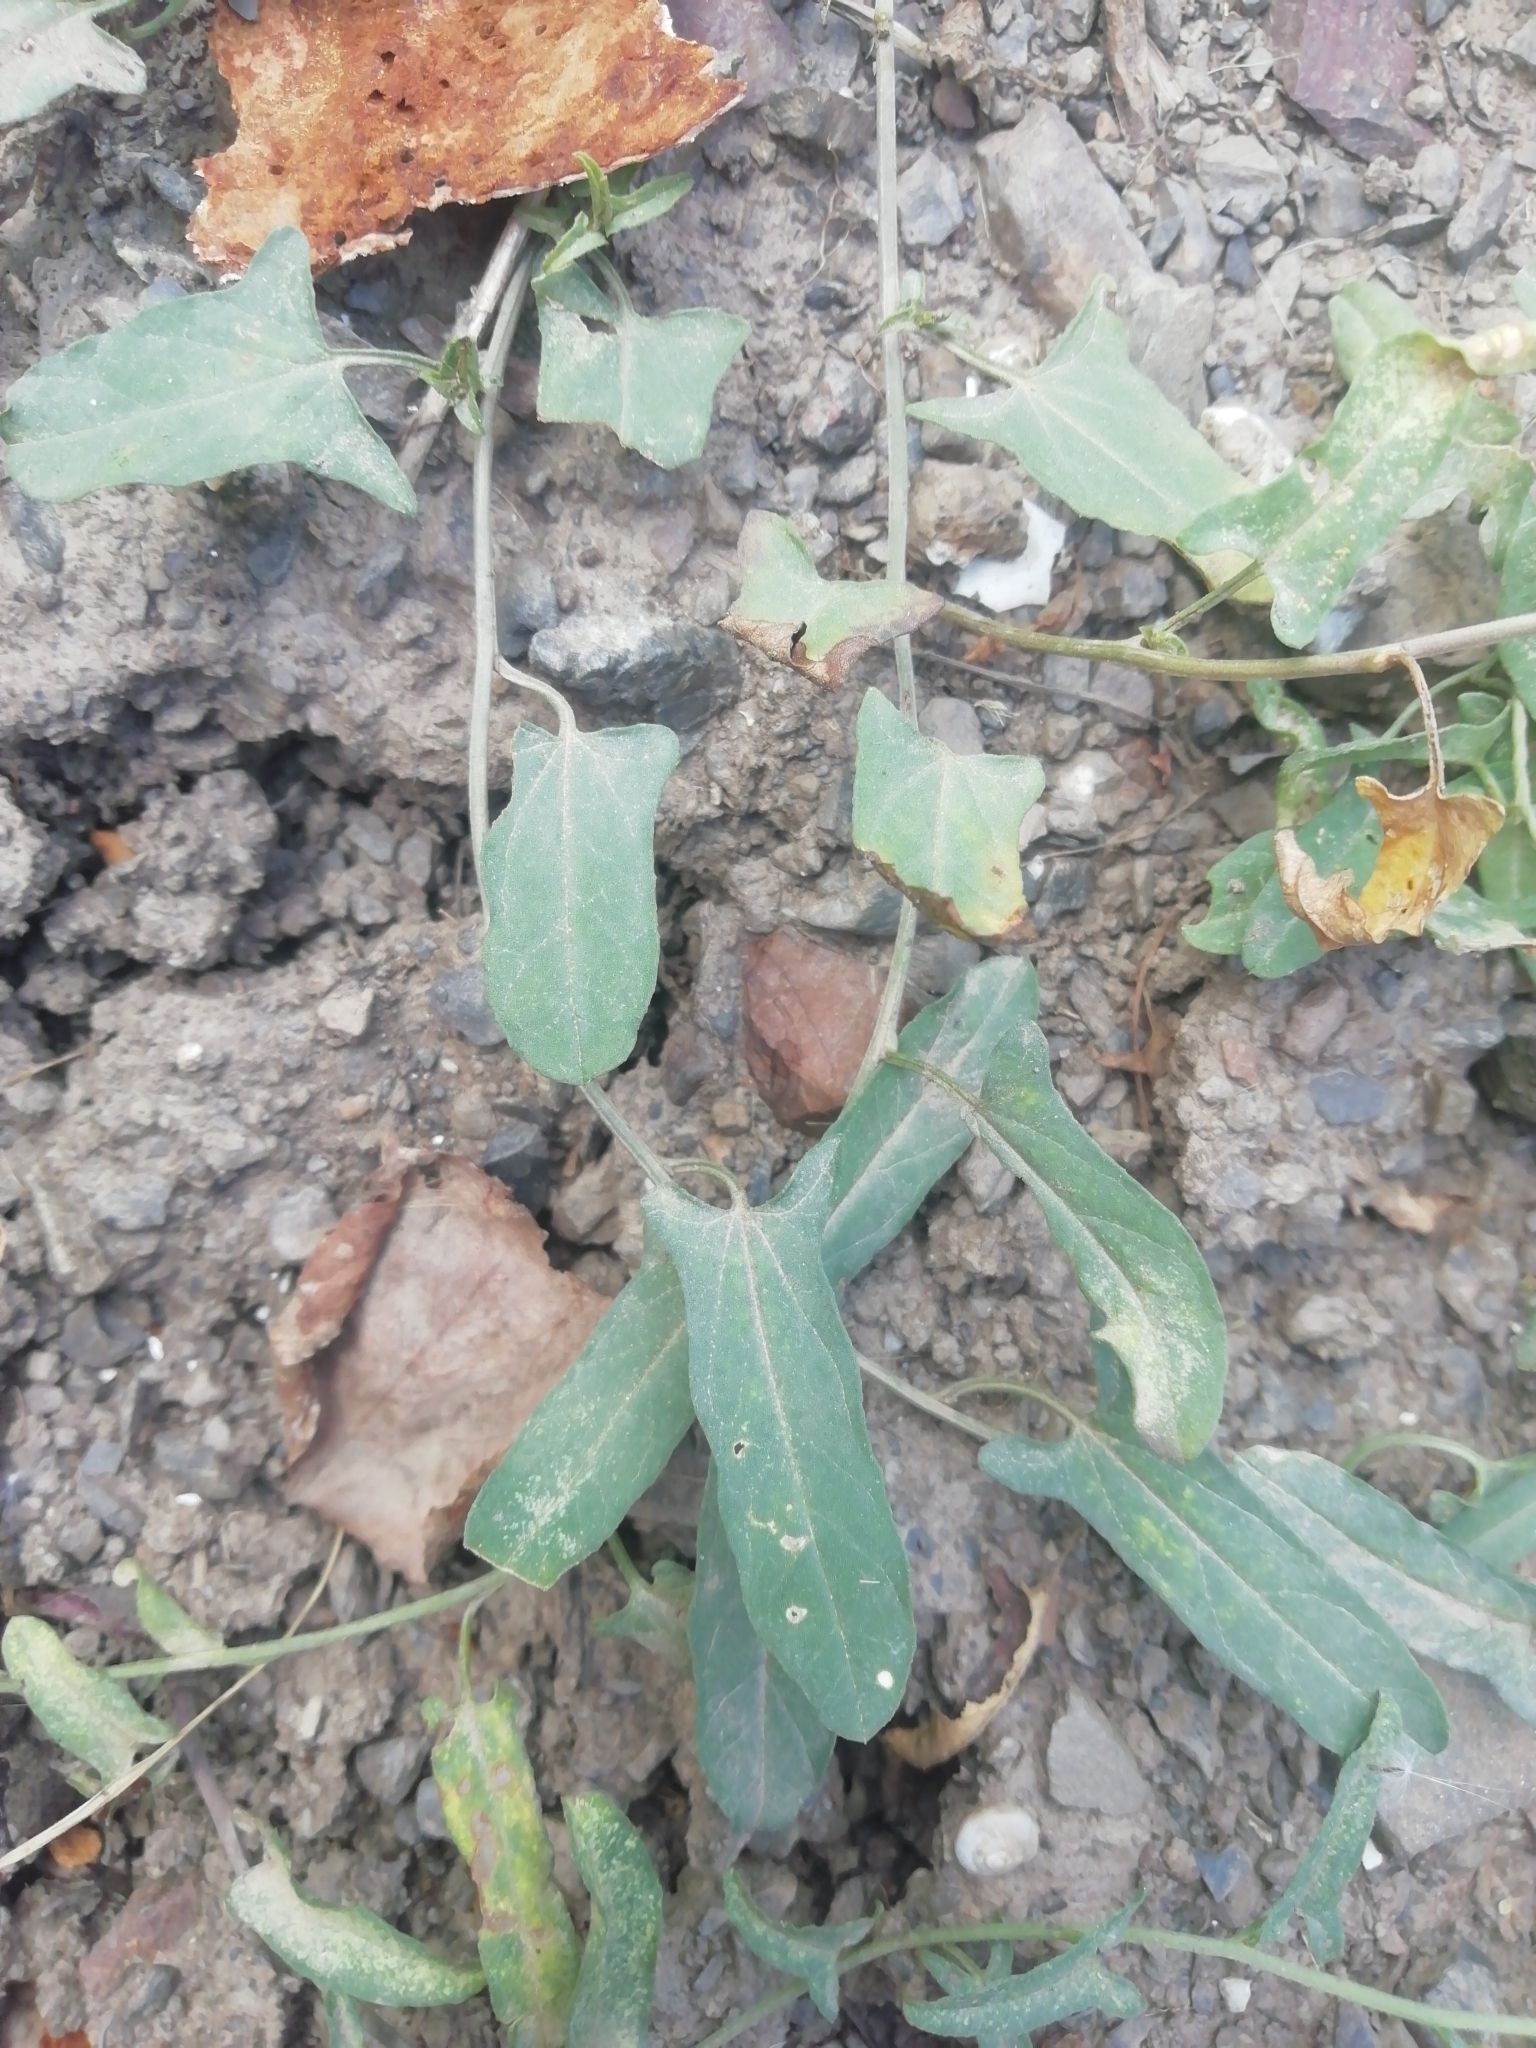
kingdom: Plantae
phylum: Tracheophyta
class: Magnoliopsida
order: Solanales
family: Convolvulaceae
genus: Convolvulus
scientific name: Convolvulus arvensis
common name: Field bindweed
